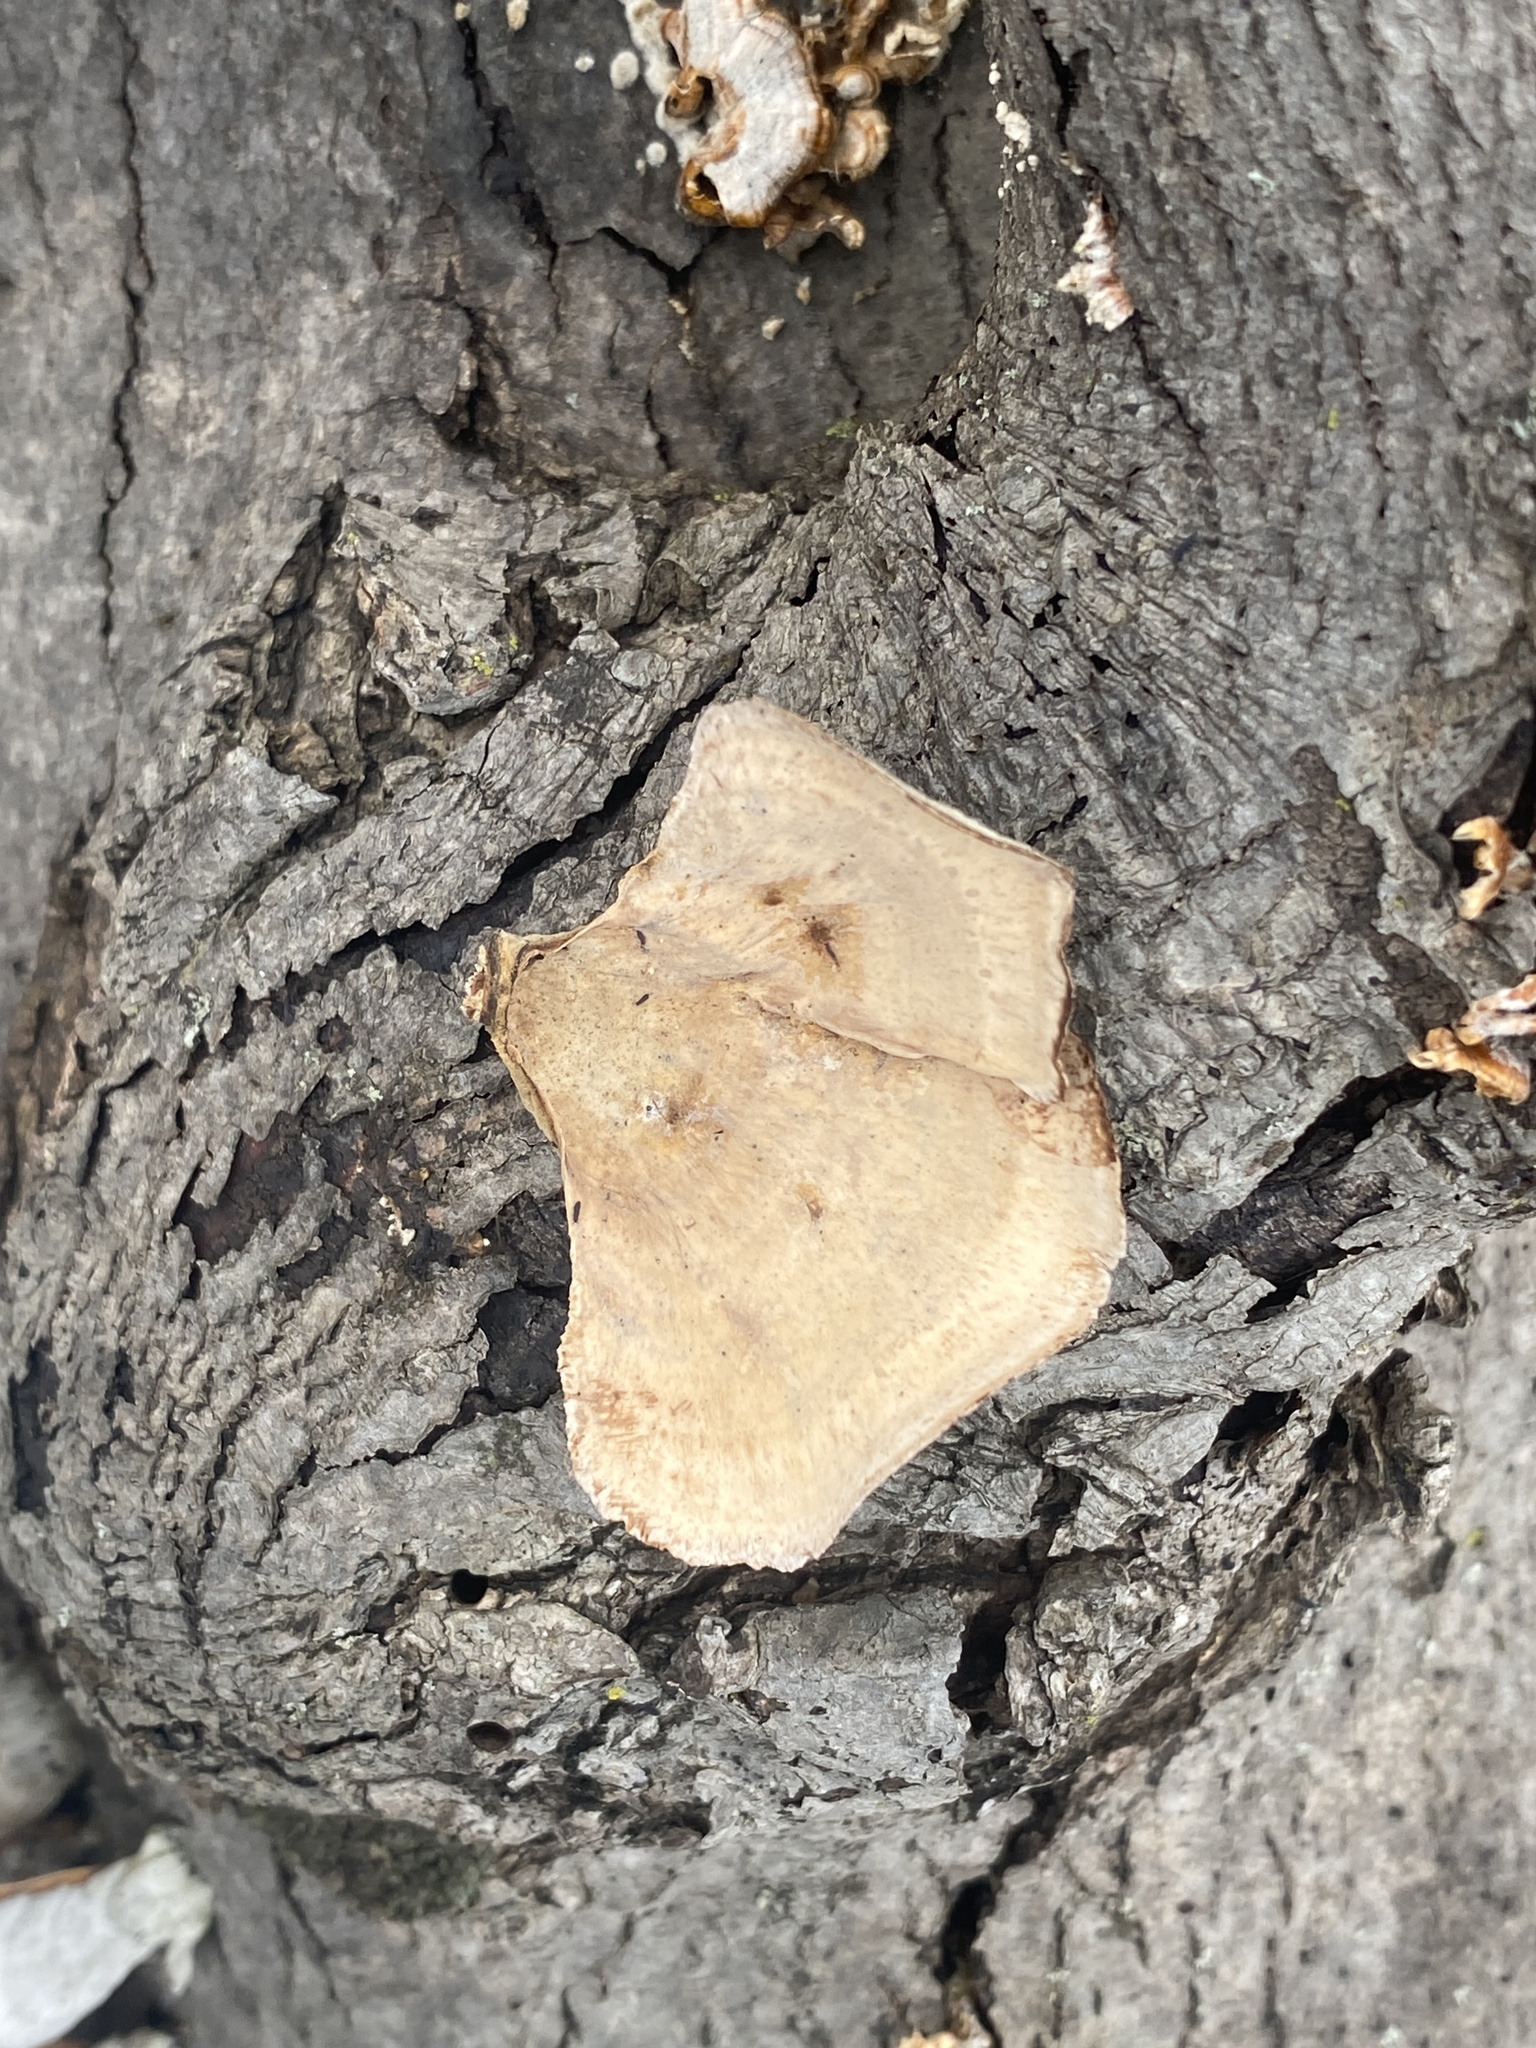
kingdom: Fungi
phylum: Basidiomycota
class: Agaricomycetes
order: Russulales
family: Stereaceae
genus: Stereum
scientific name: Stereum lobatum
